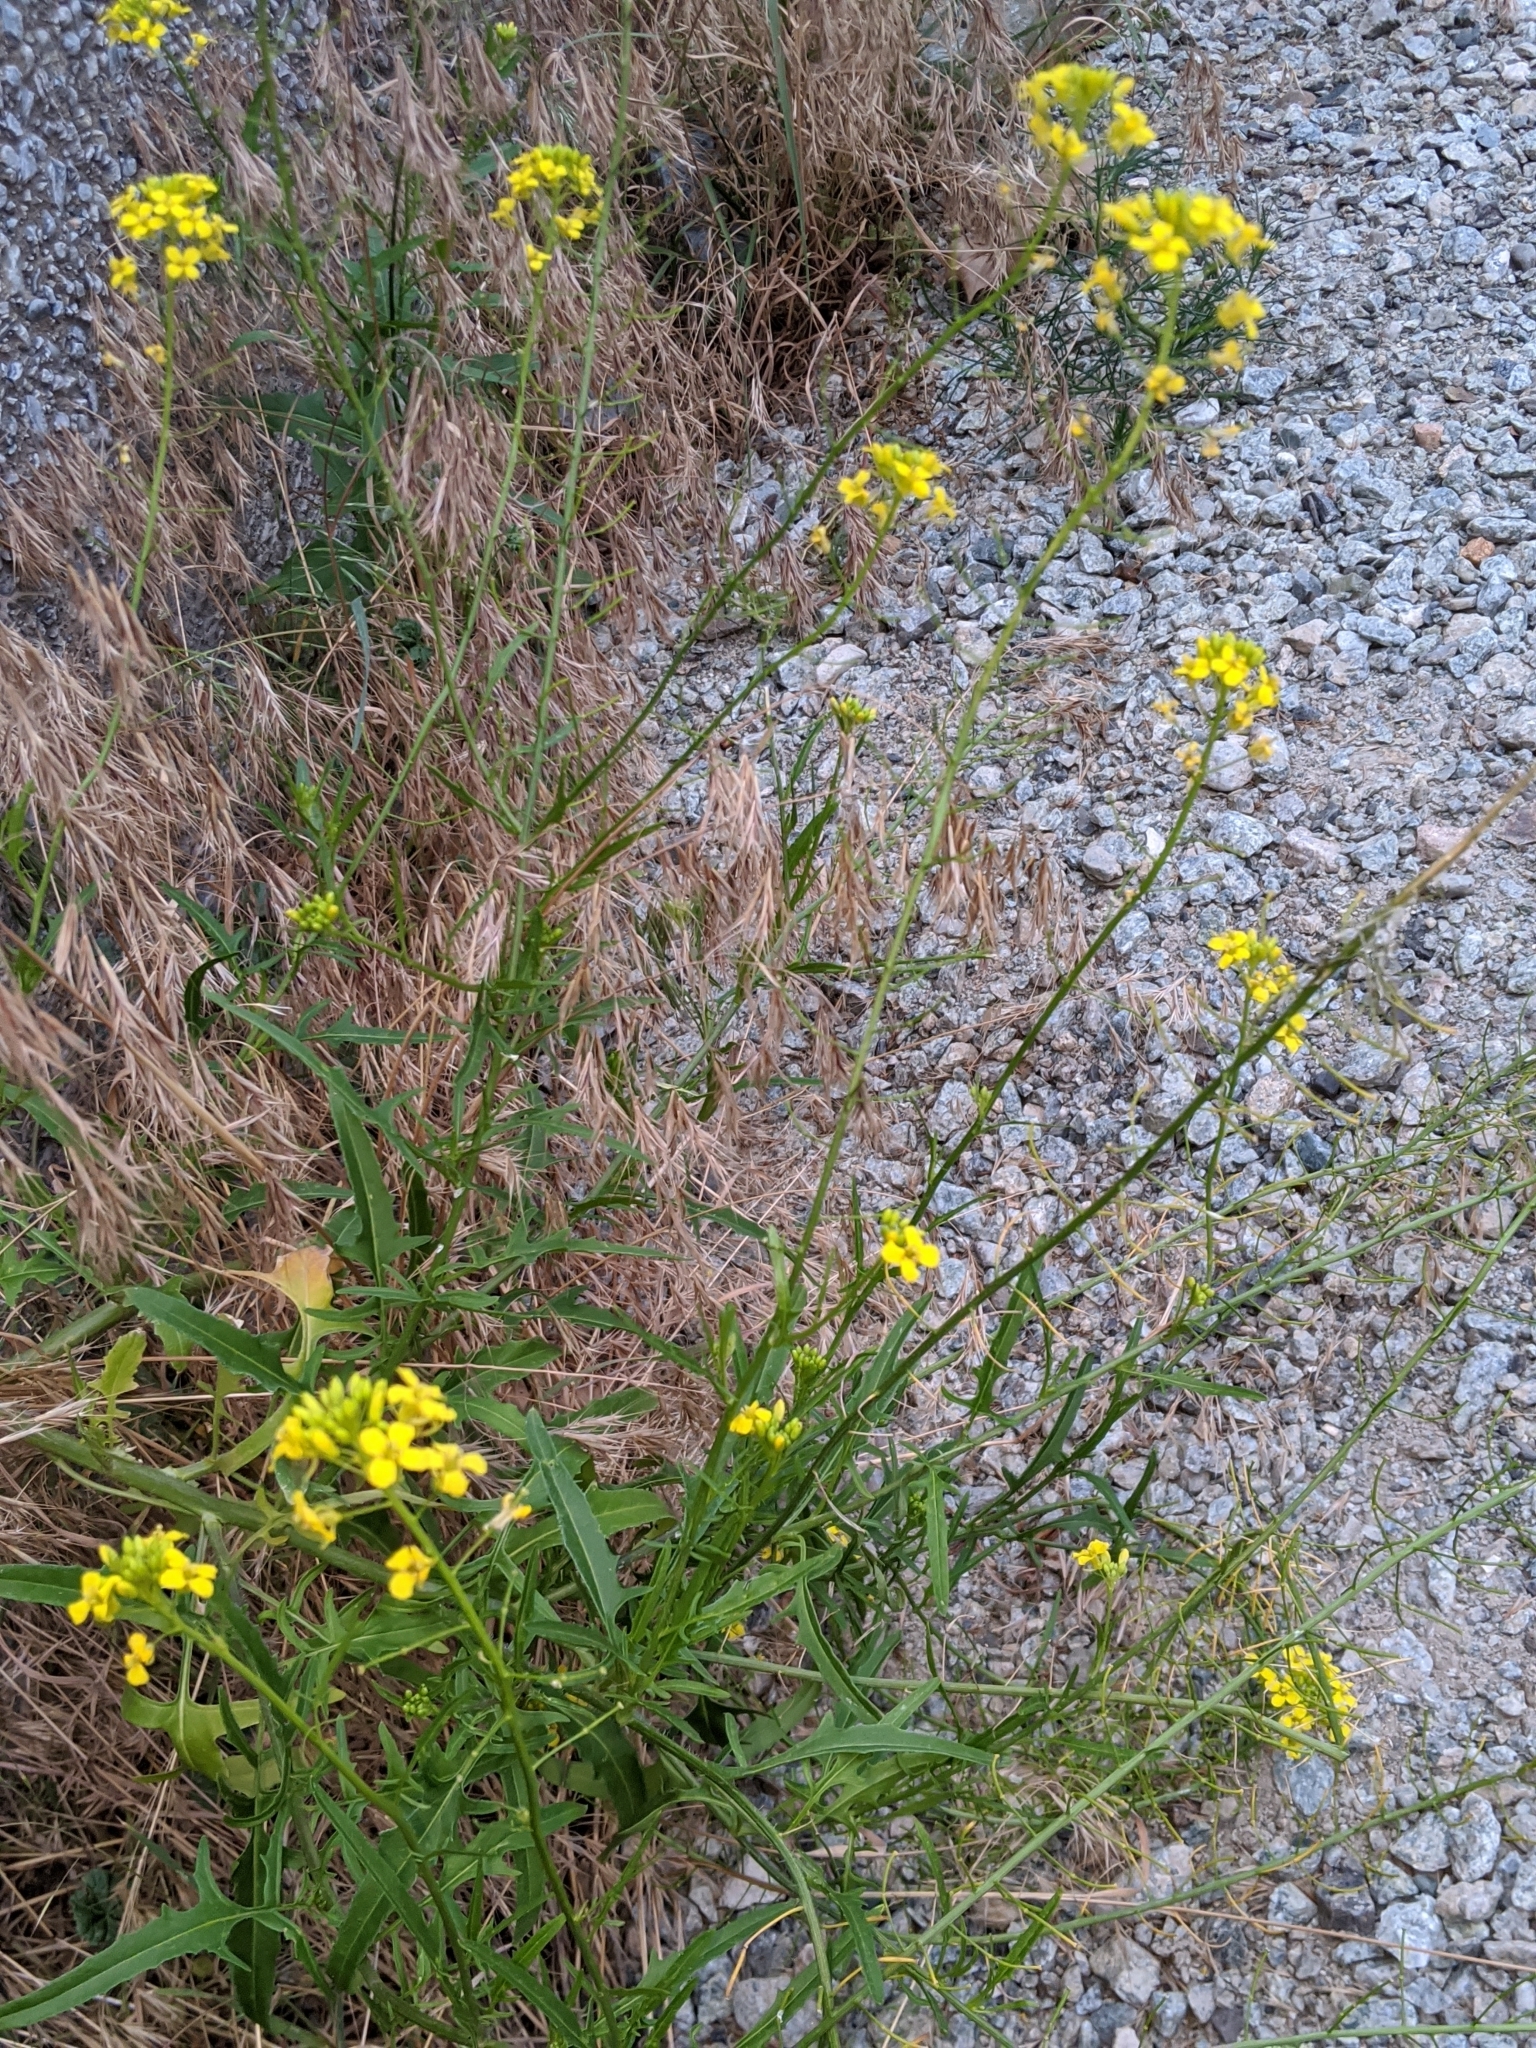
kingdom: Plantae
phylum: Tracheophyta
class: Magnoliopsida
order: Brassicales
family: Brassicaceae
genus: Sisymbrium
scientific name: Sisymbrium loeselii
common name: False london-rocket
